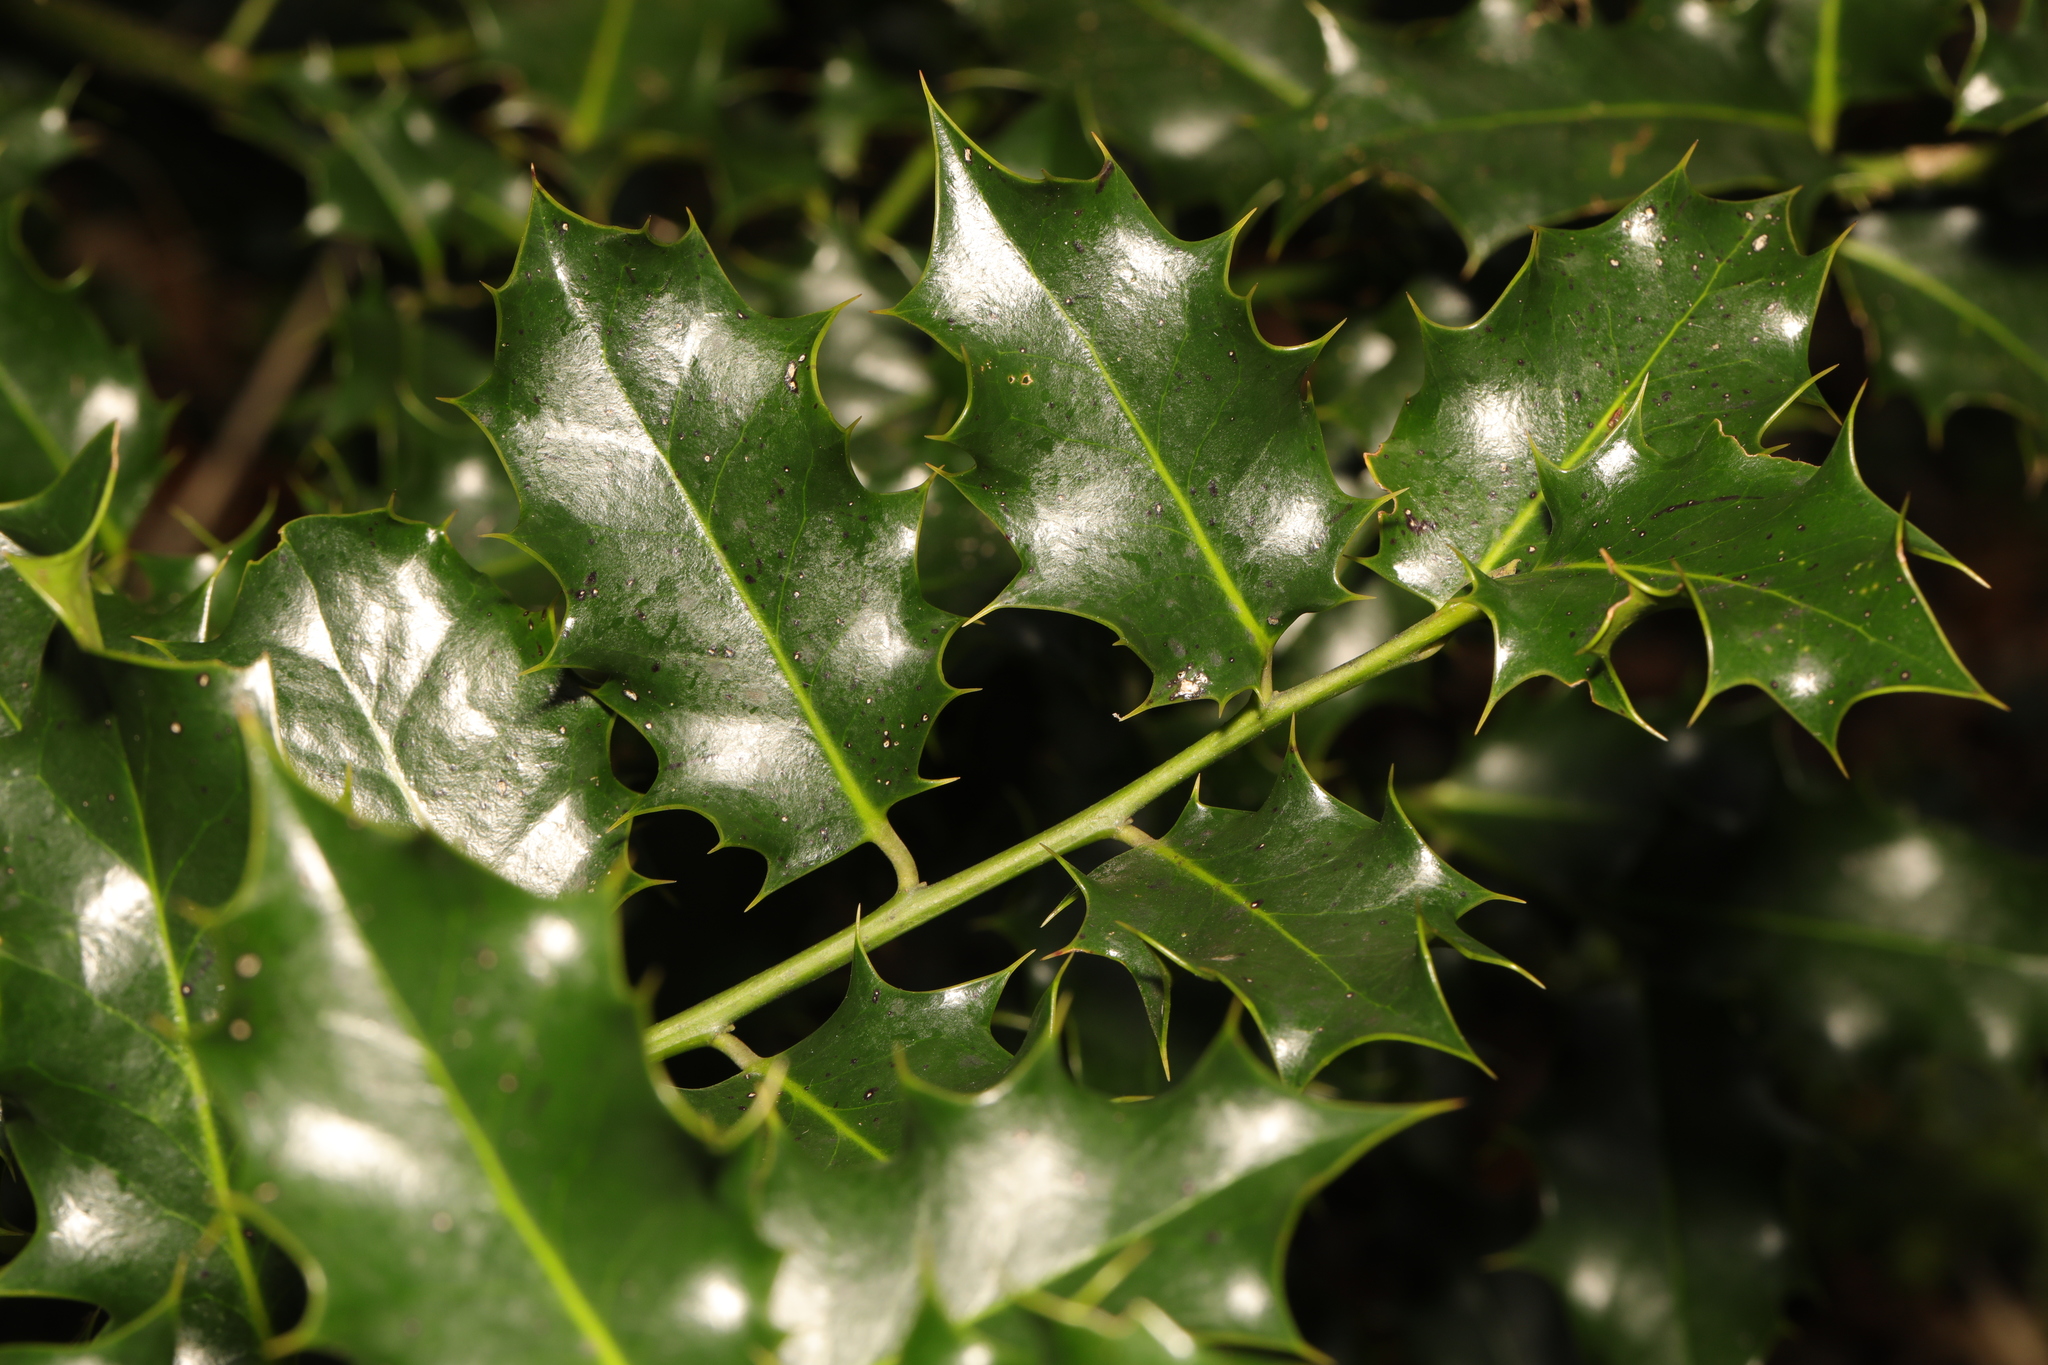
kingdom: Plantae
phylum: Tracheophyta
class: Magnoliopsida
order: Aquifoliales
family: Aquifoliaceae
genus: Ilex
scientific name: Ilex aquifolium
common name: English holly
